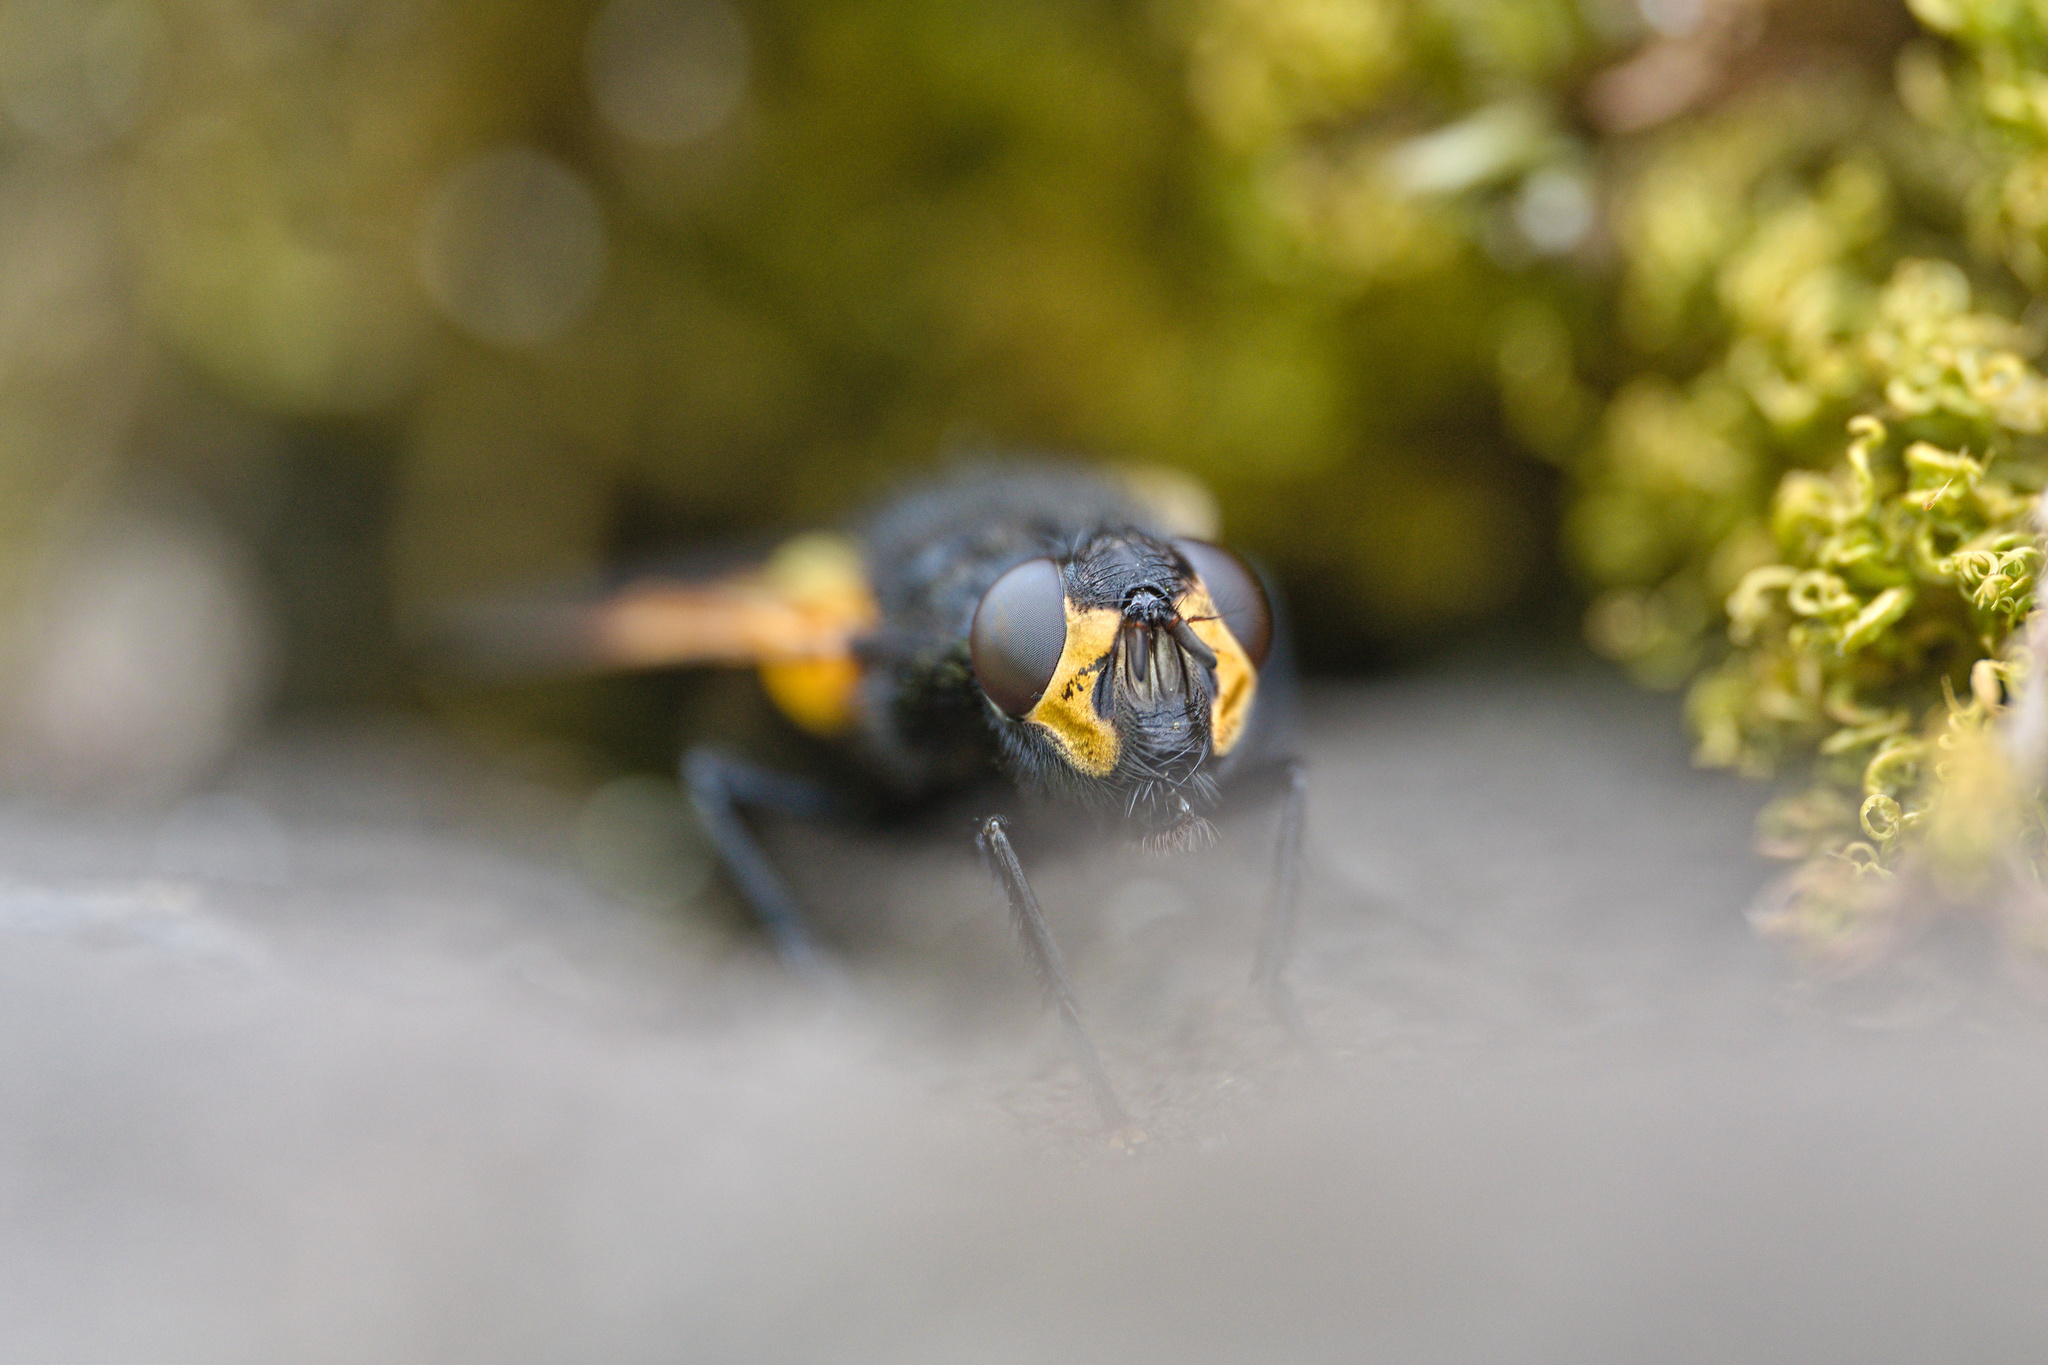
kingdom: Animalia
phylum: Arthropoda
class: Insecta
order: Diptera
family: Muscidae
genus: Mesembrina
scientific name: Mesembrina meridiana
